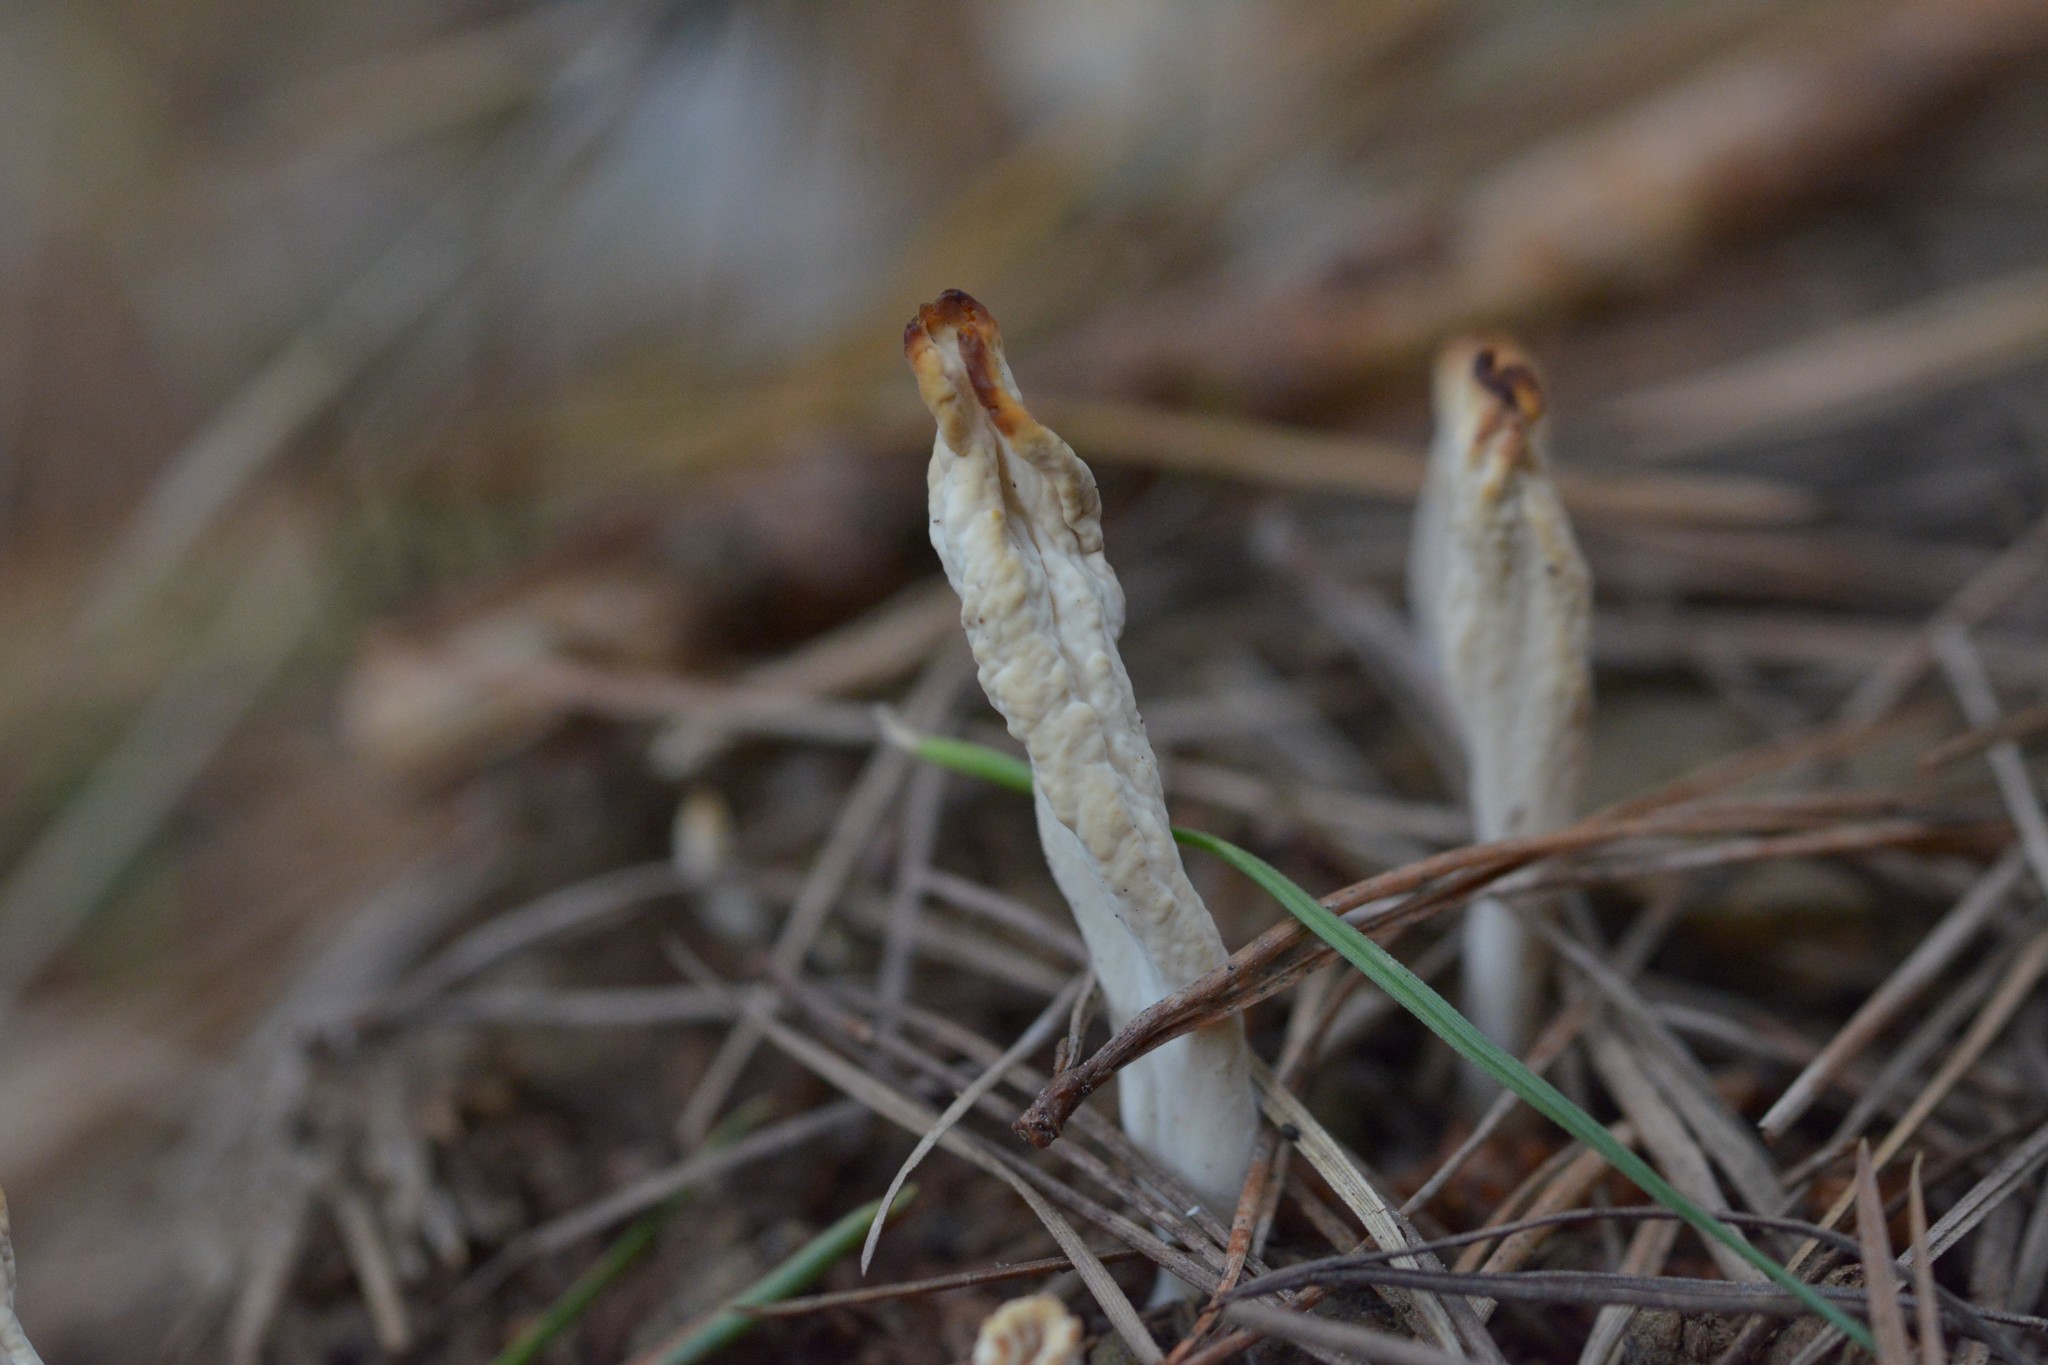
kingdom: Fungi
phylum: Basidiomycota
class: Agaricomycetes
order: Cantharellales
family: Hydnaceae
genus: Clavulina
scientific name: Clavulina rugosa
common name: Wrinkled club
